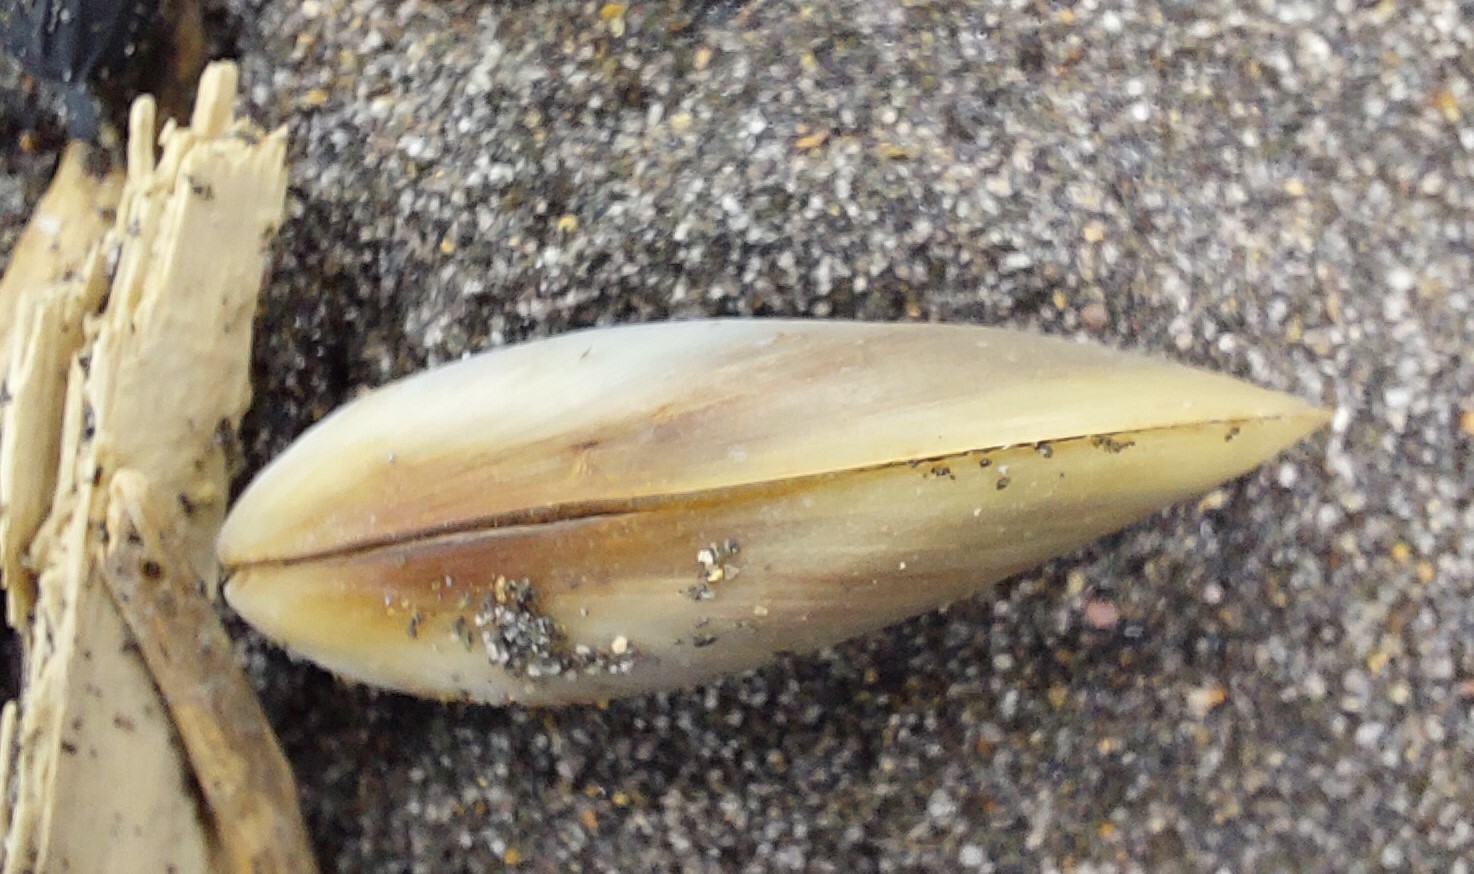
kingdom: Animalia
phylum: Mollusca
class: Bivalvia
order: Mytilida
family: Mytilidae
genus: Mytilus
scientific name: Mytilus planulatus
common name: Australian mussel
